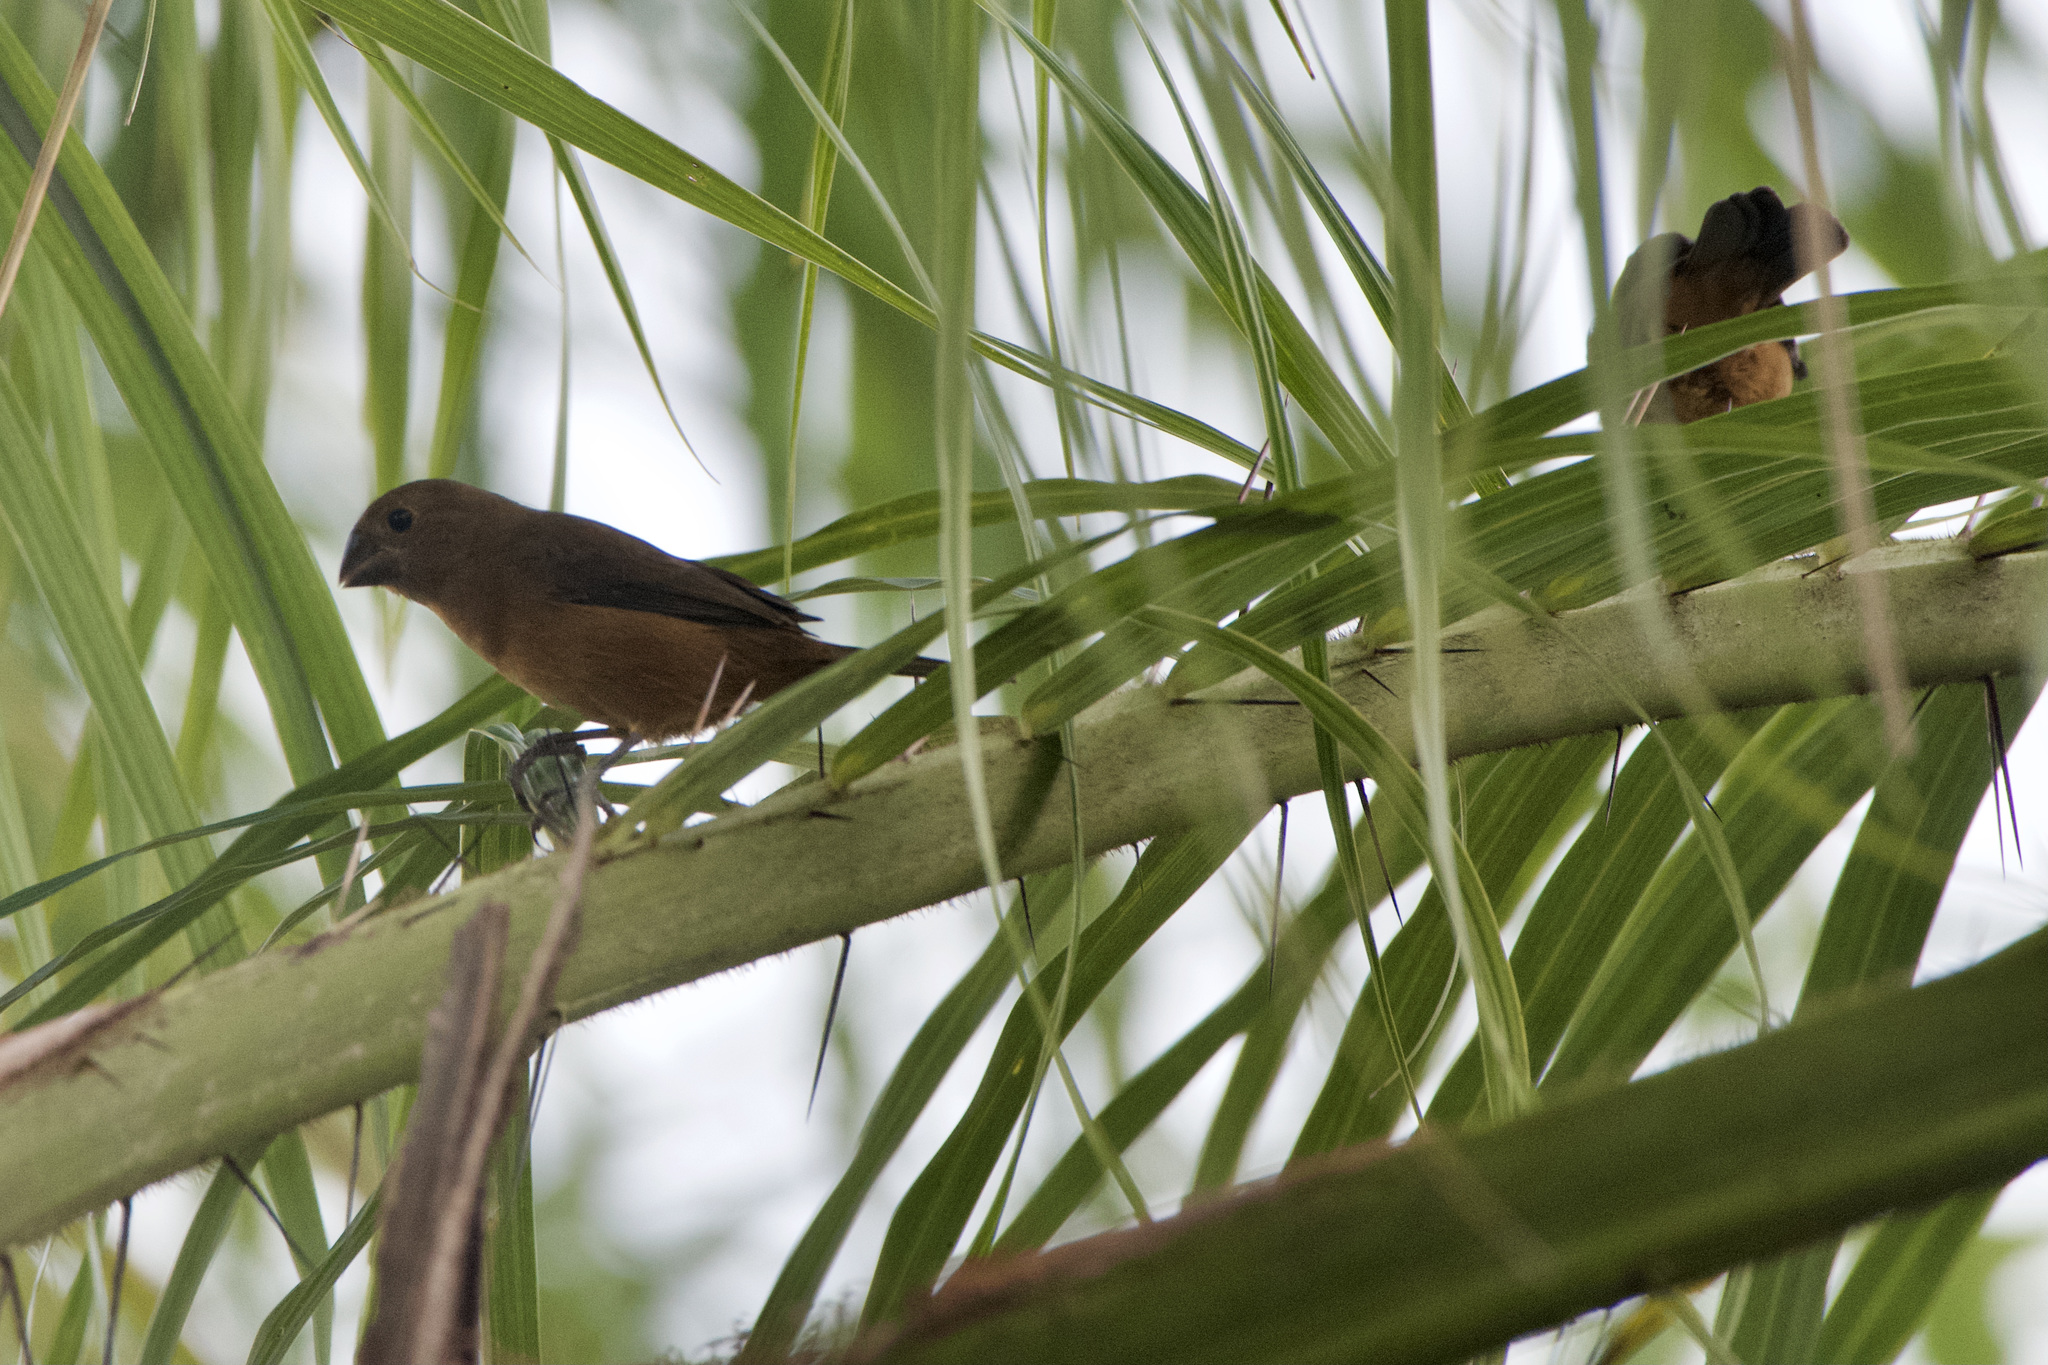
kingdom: Animalia
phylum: Chordata
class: Aves
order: Passeriformes
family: Thraupidae
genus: Sporophila
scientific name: Sporophila funerea
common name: Thick-billed seed-finch
